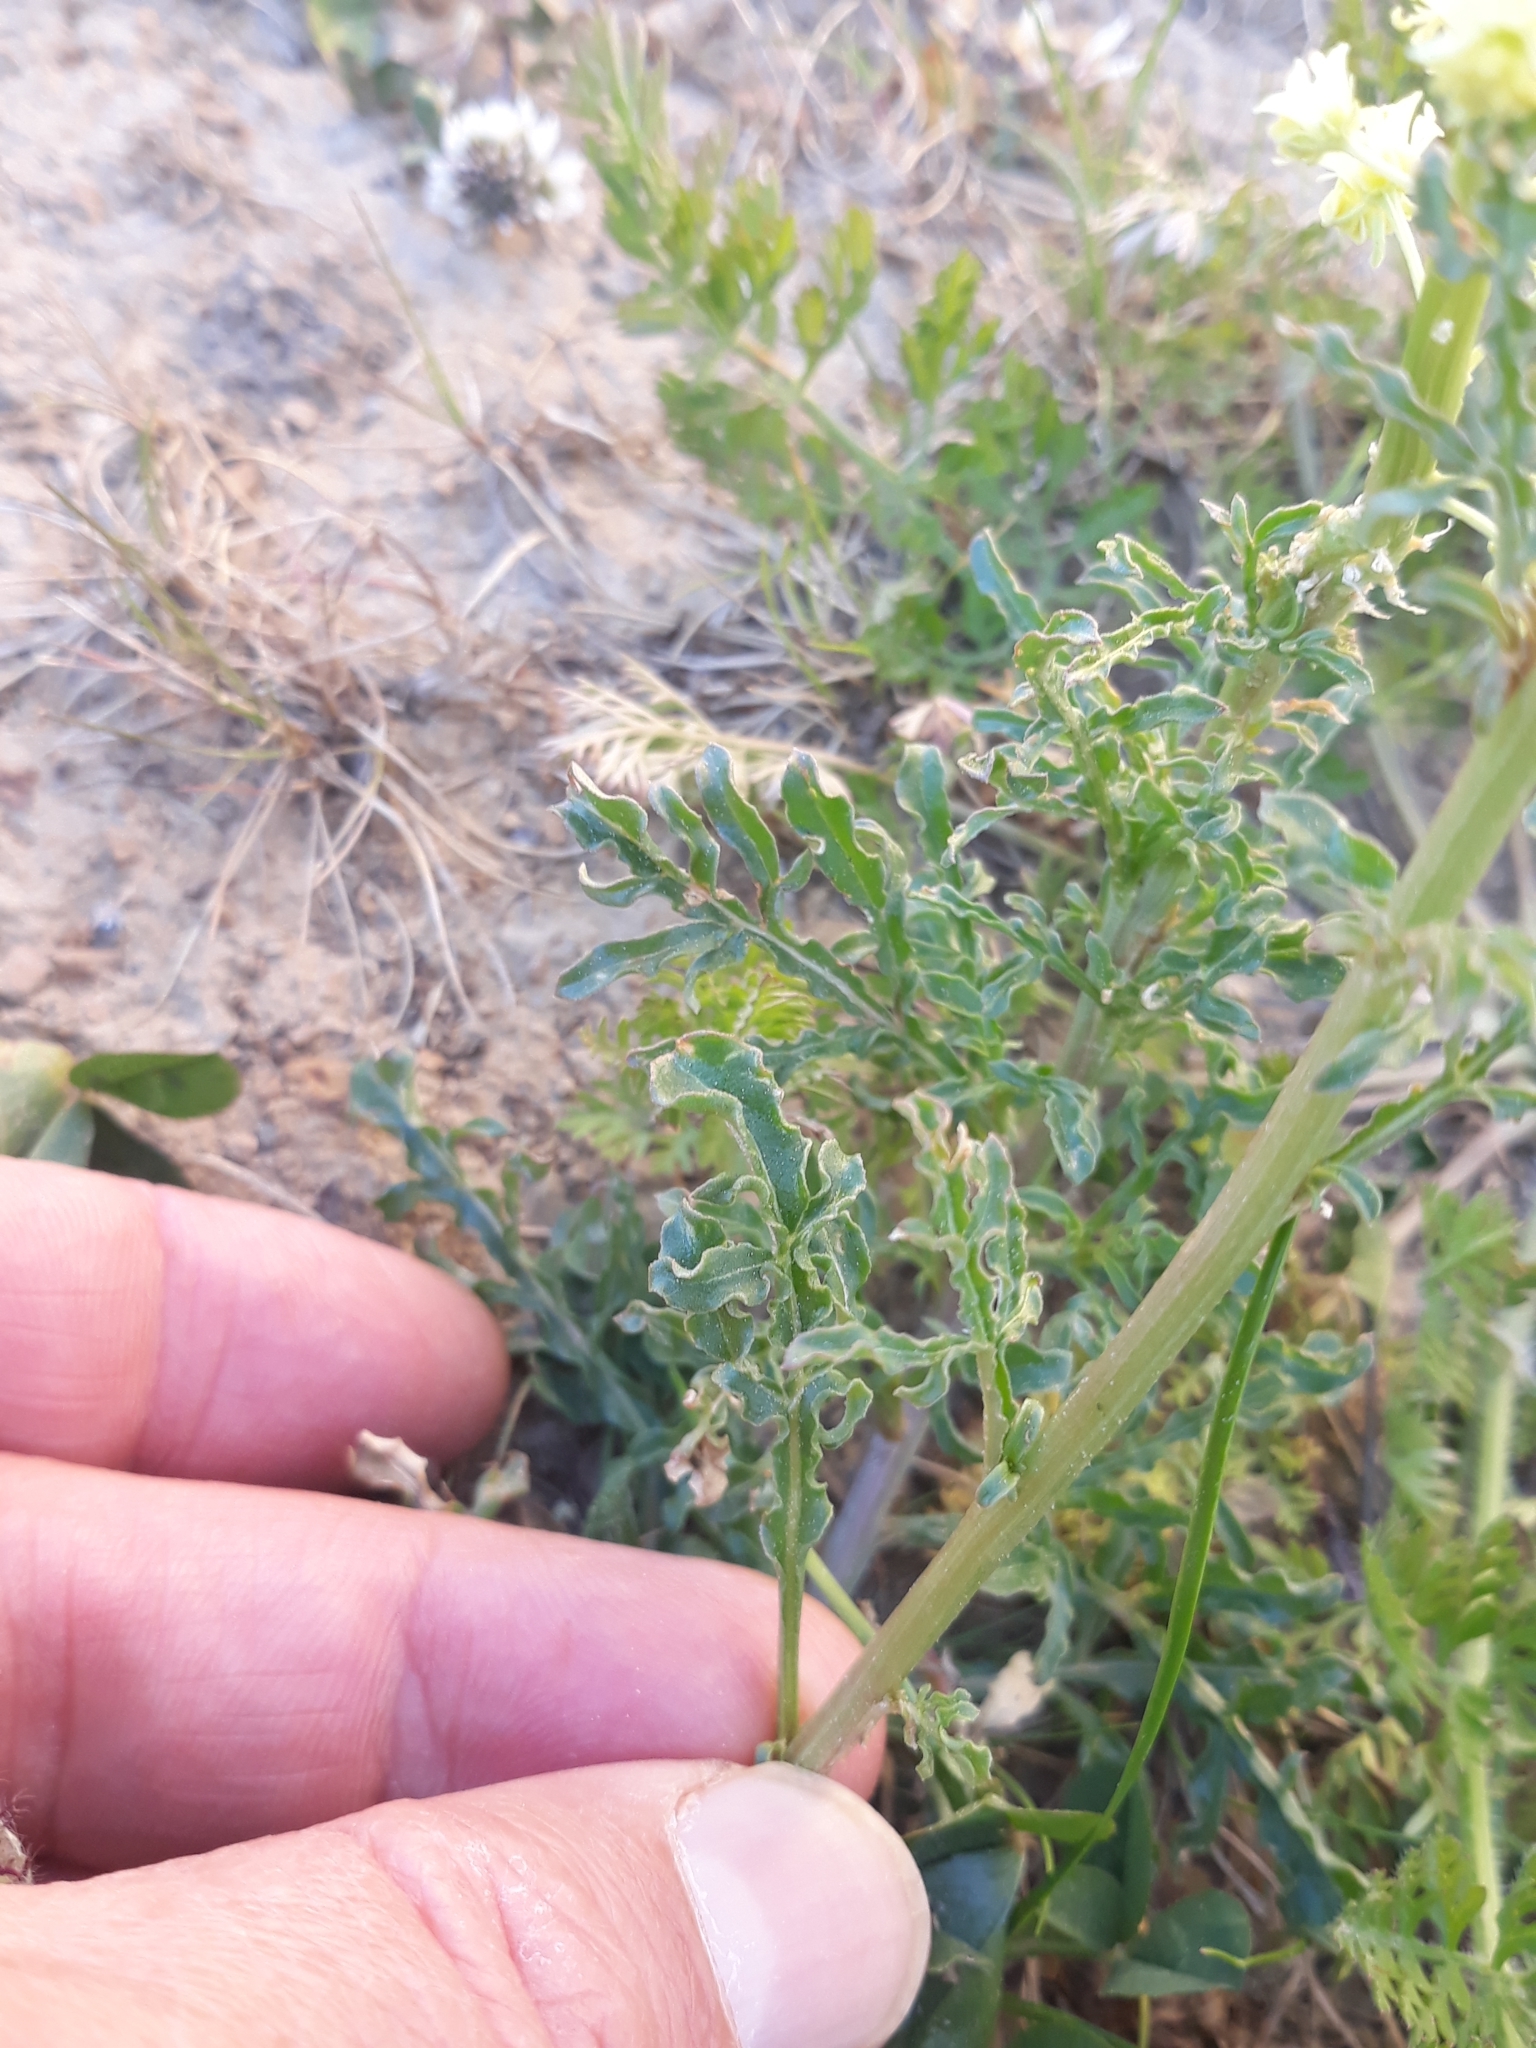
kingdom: Plantae
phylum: Tracheophyta
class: Magnoliopsida
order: Brassicales
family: Resedaceae
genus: Reseda
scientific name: Reseda lutea
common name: Wild mignonette
